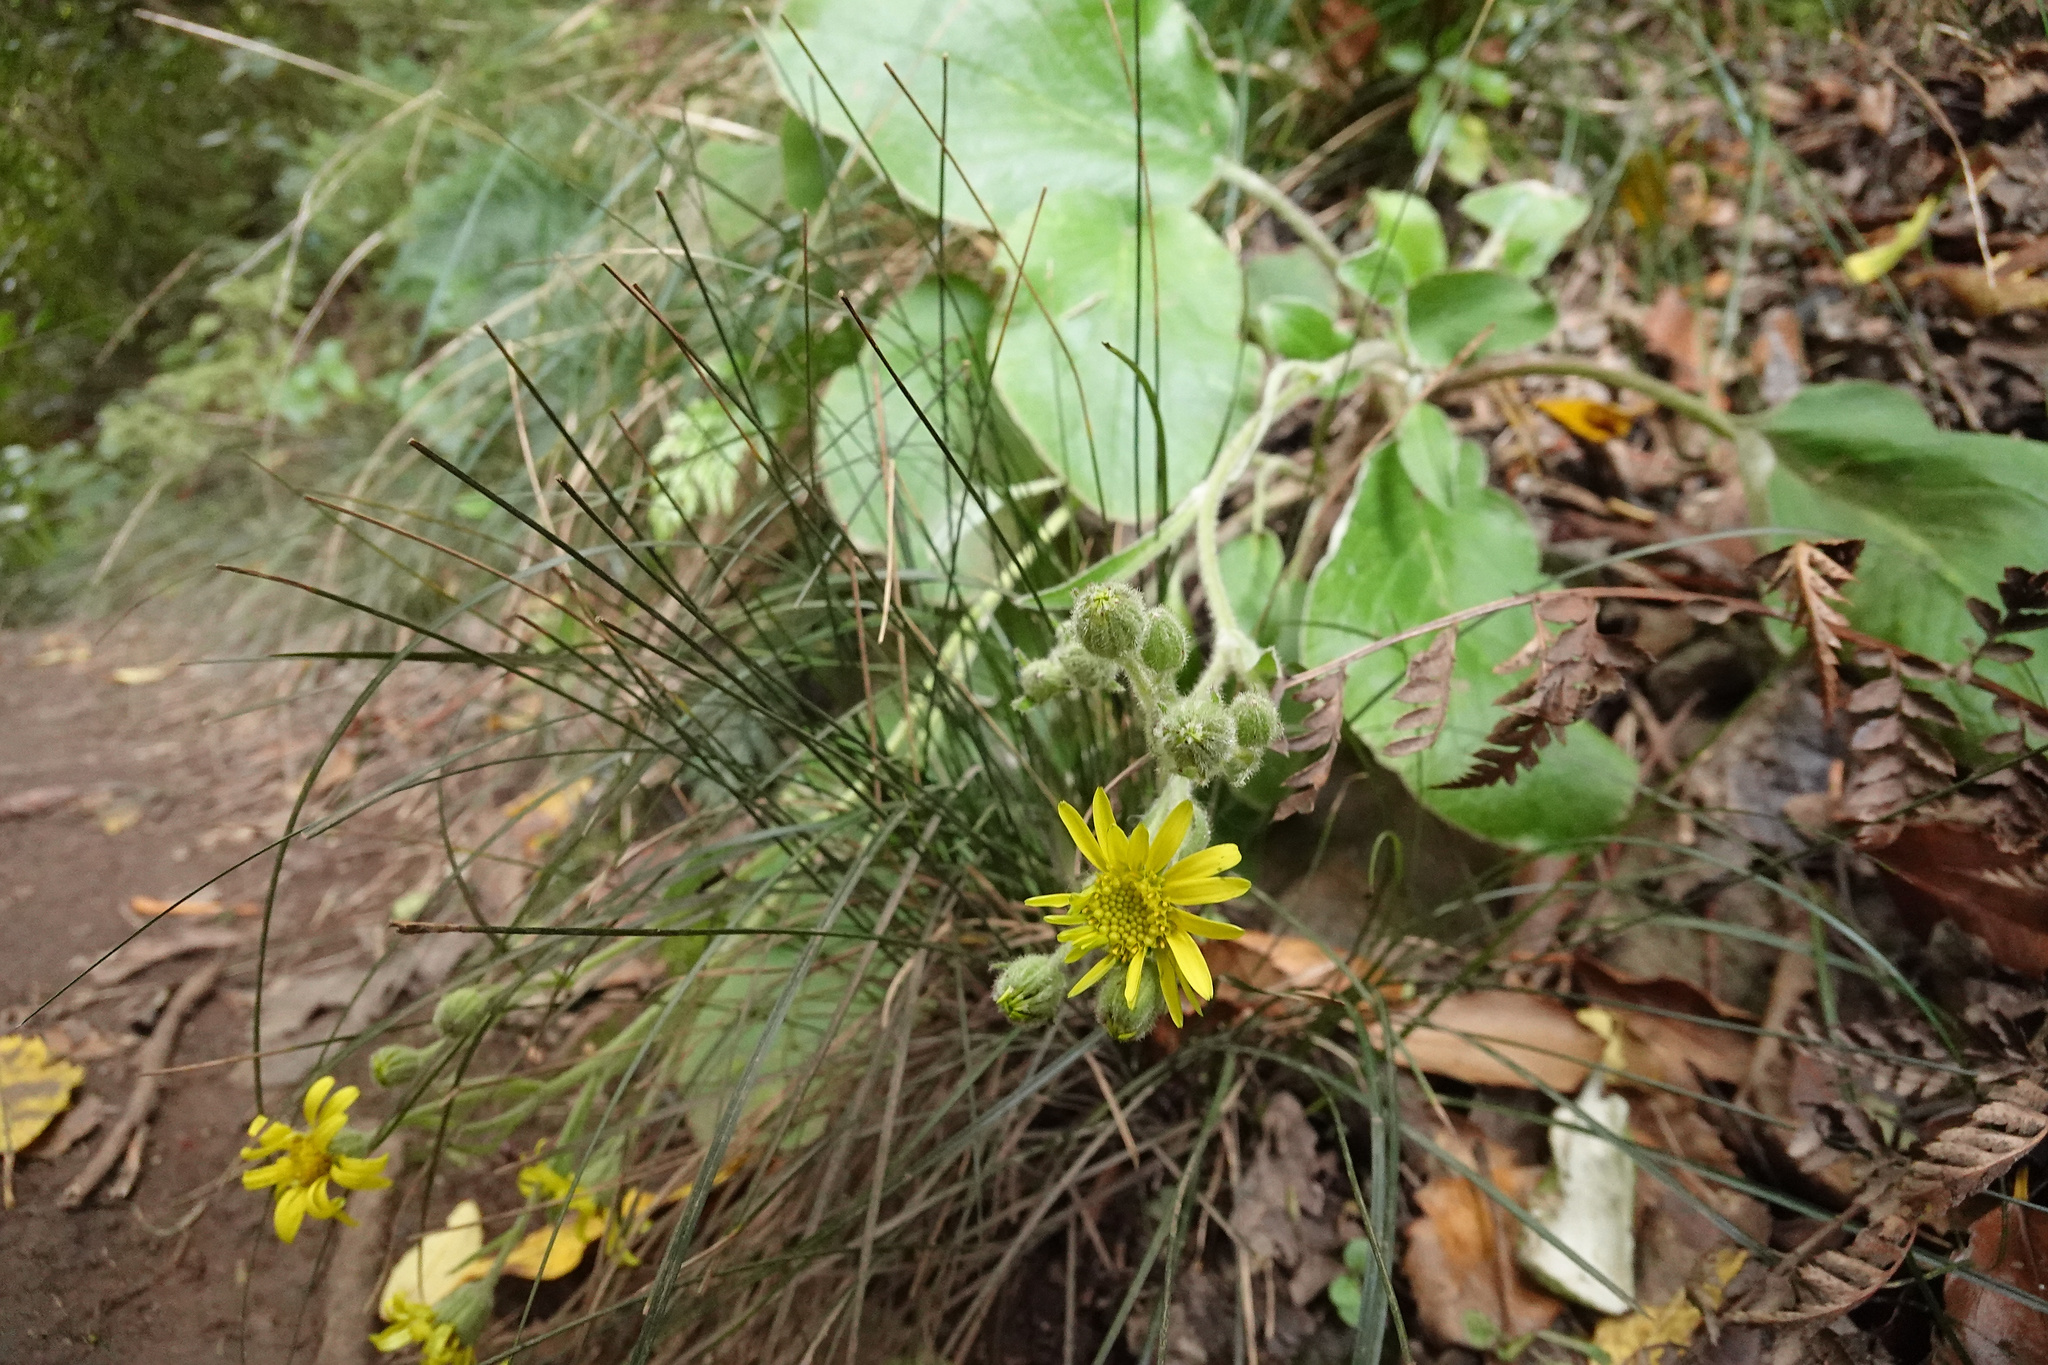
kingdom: Plantae
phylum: Tracheophyta
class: Magnoliopsida
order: Asterales
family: Asteraceae
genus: Brachyglottis
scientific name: Brachyglottis lagopus
